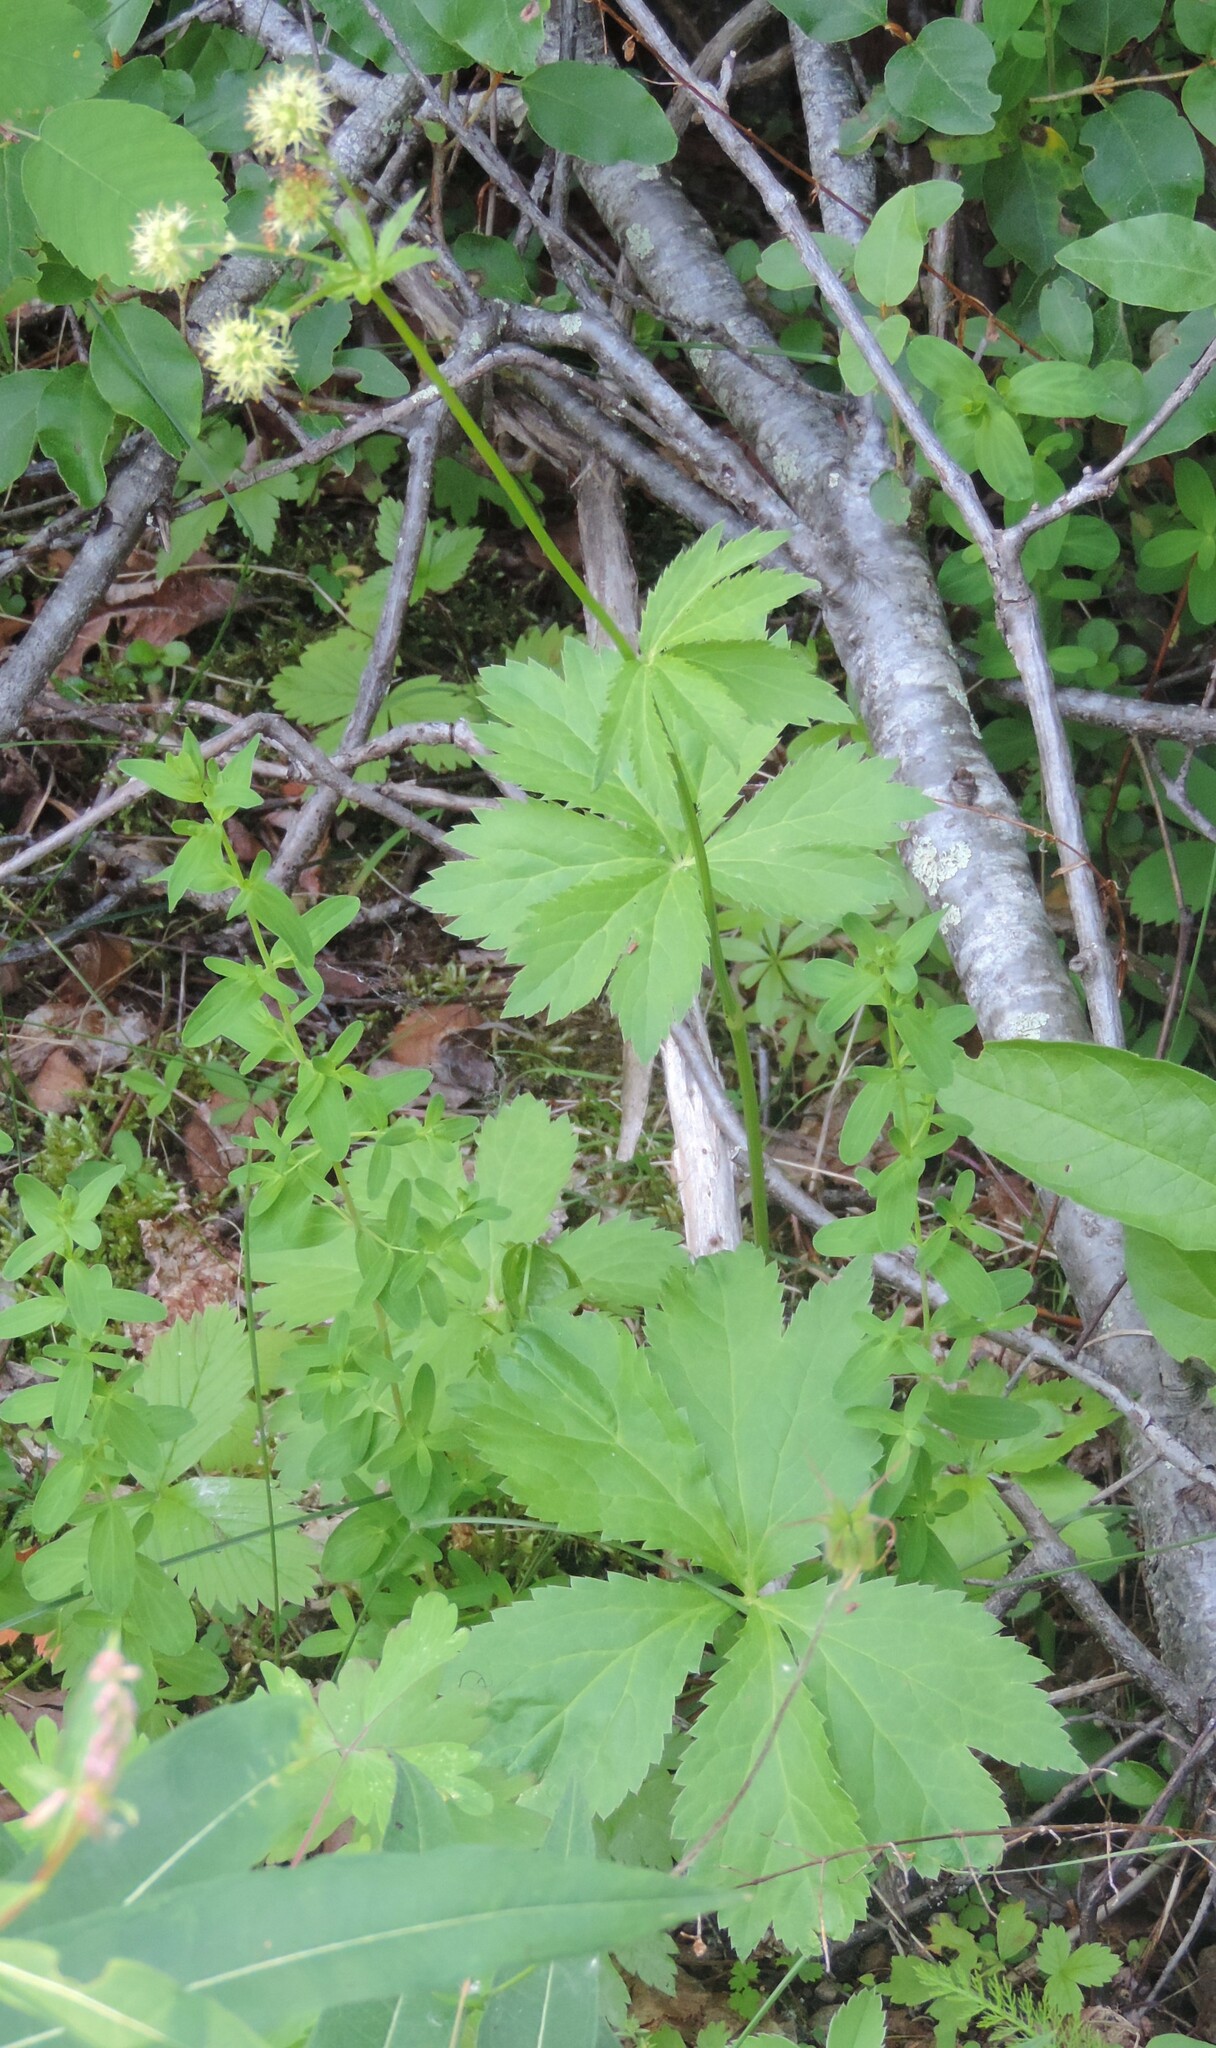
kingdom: Plantae
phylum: Tracheophyta
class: Magnoliopsida
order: Apiales
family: Apiaceae
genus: Sanicula
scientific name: Sanicula marilandica
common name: Black snakeroot
